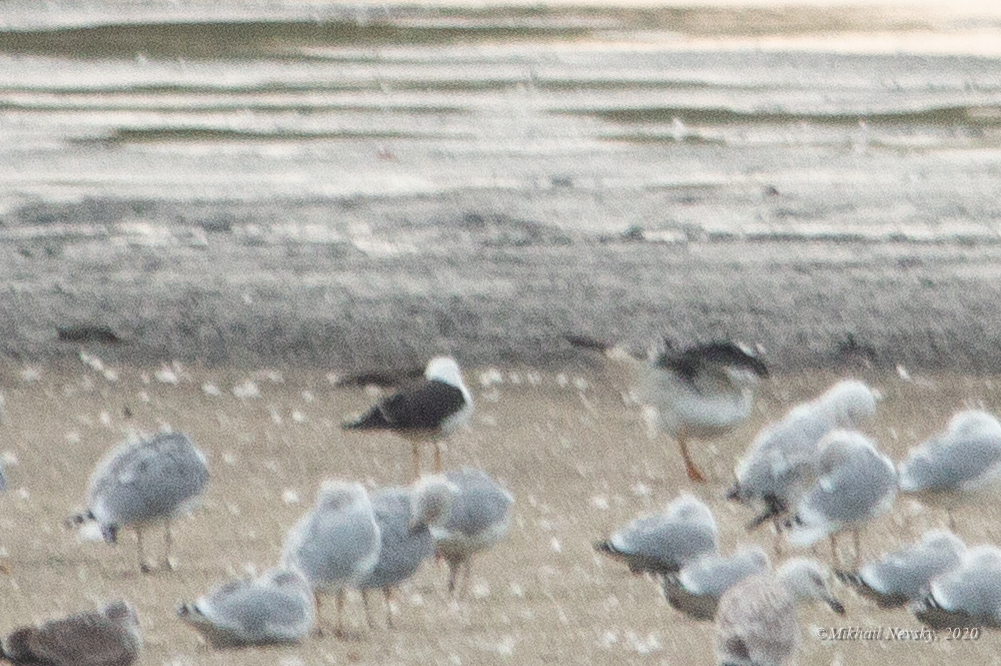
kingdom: Animalia
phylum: Chordata
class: Aves
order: Charadriiformes
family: Laridae
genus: Larus
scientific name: Larus fuscus
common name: Lesser black-backed gull
